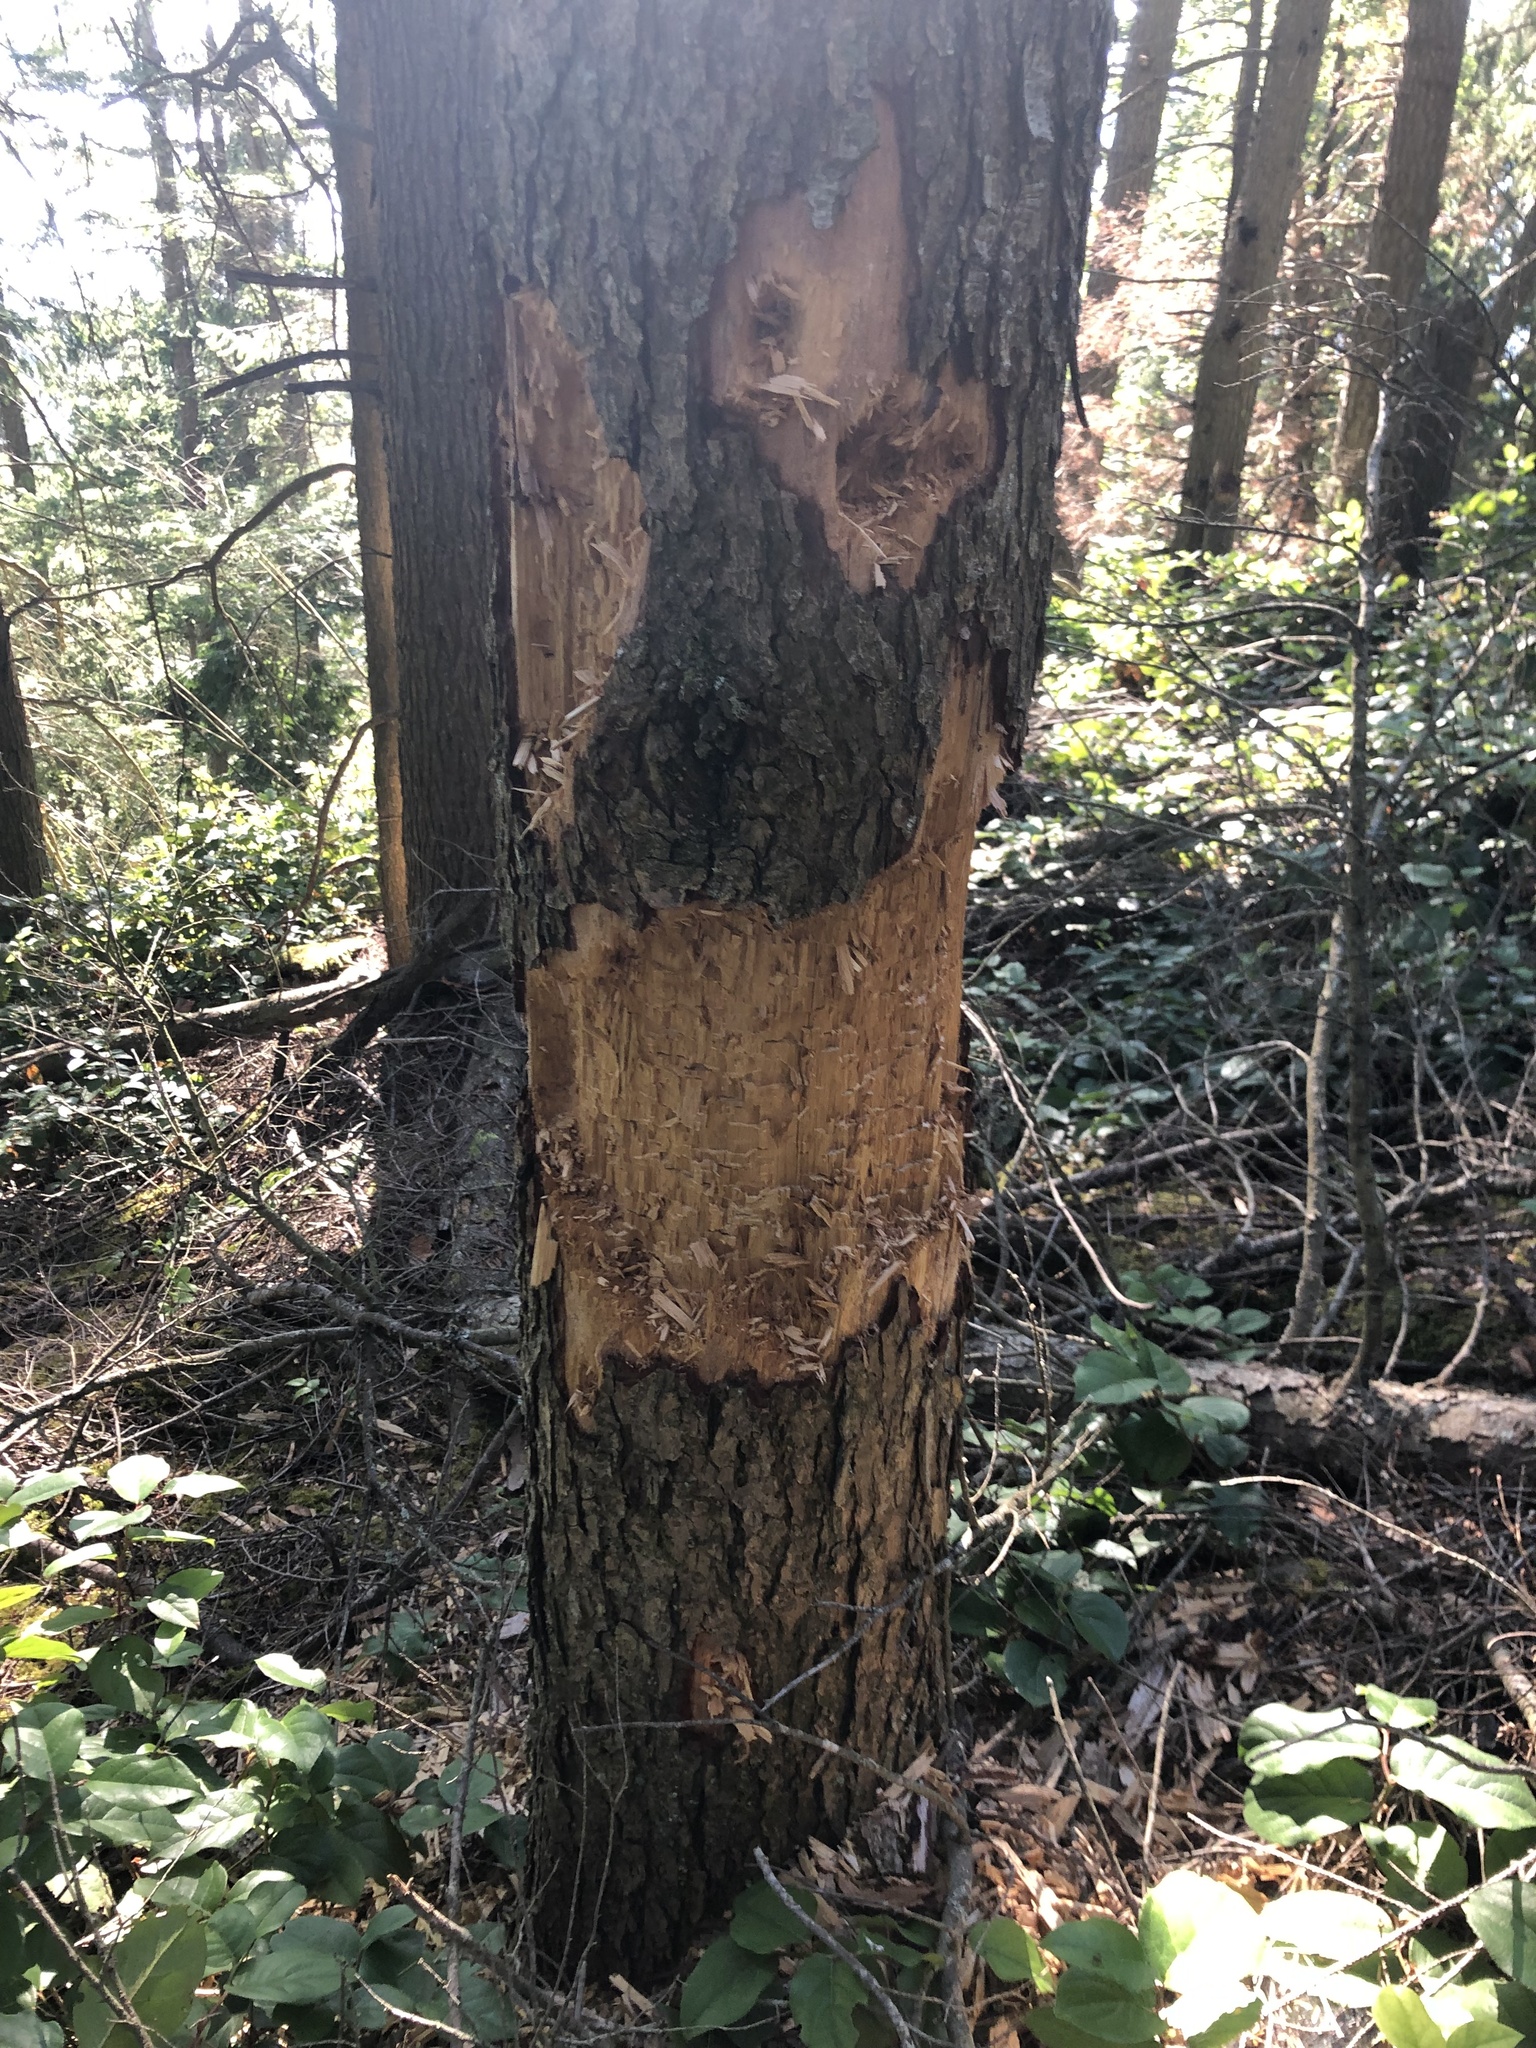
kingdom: Animalia
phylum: Chordata
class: Aves
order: Piciformes
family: Picidae
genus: Dryocopus
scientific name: Dryocopus pileatus
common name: Pileated woodpecker
